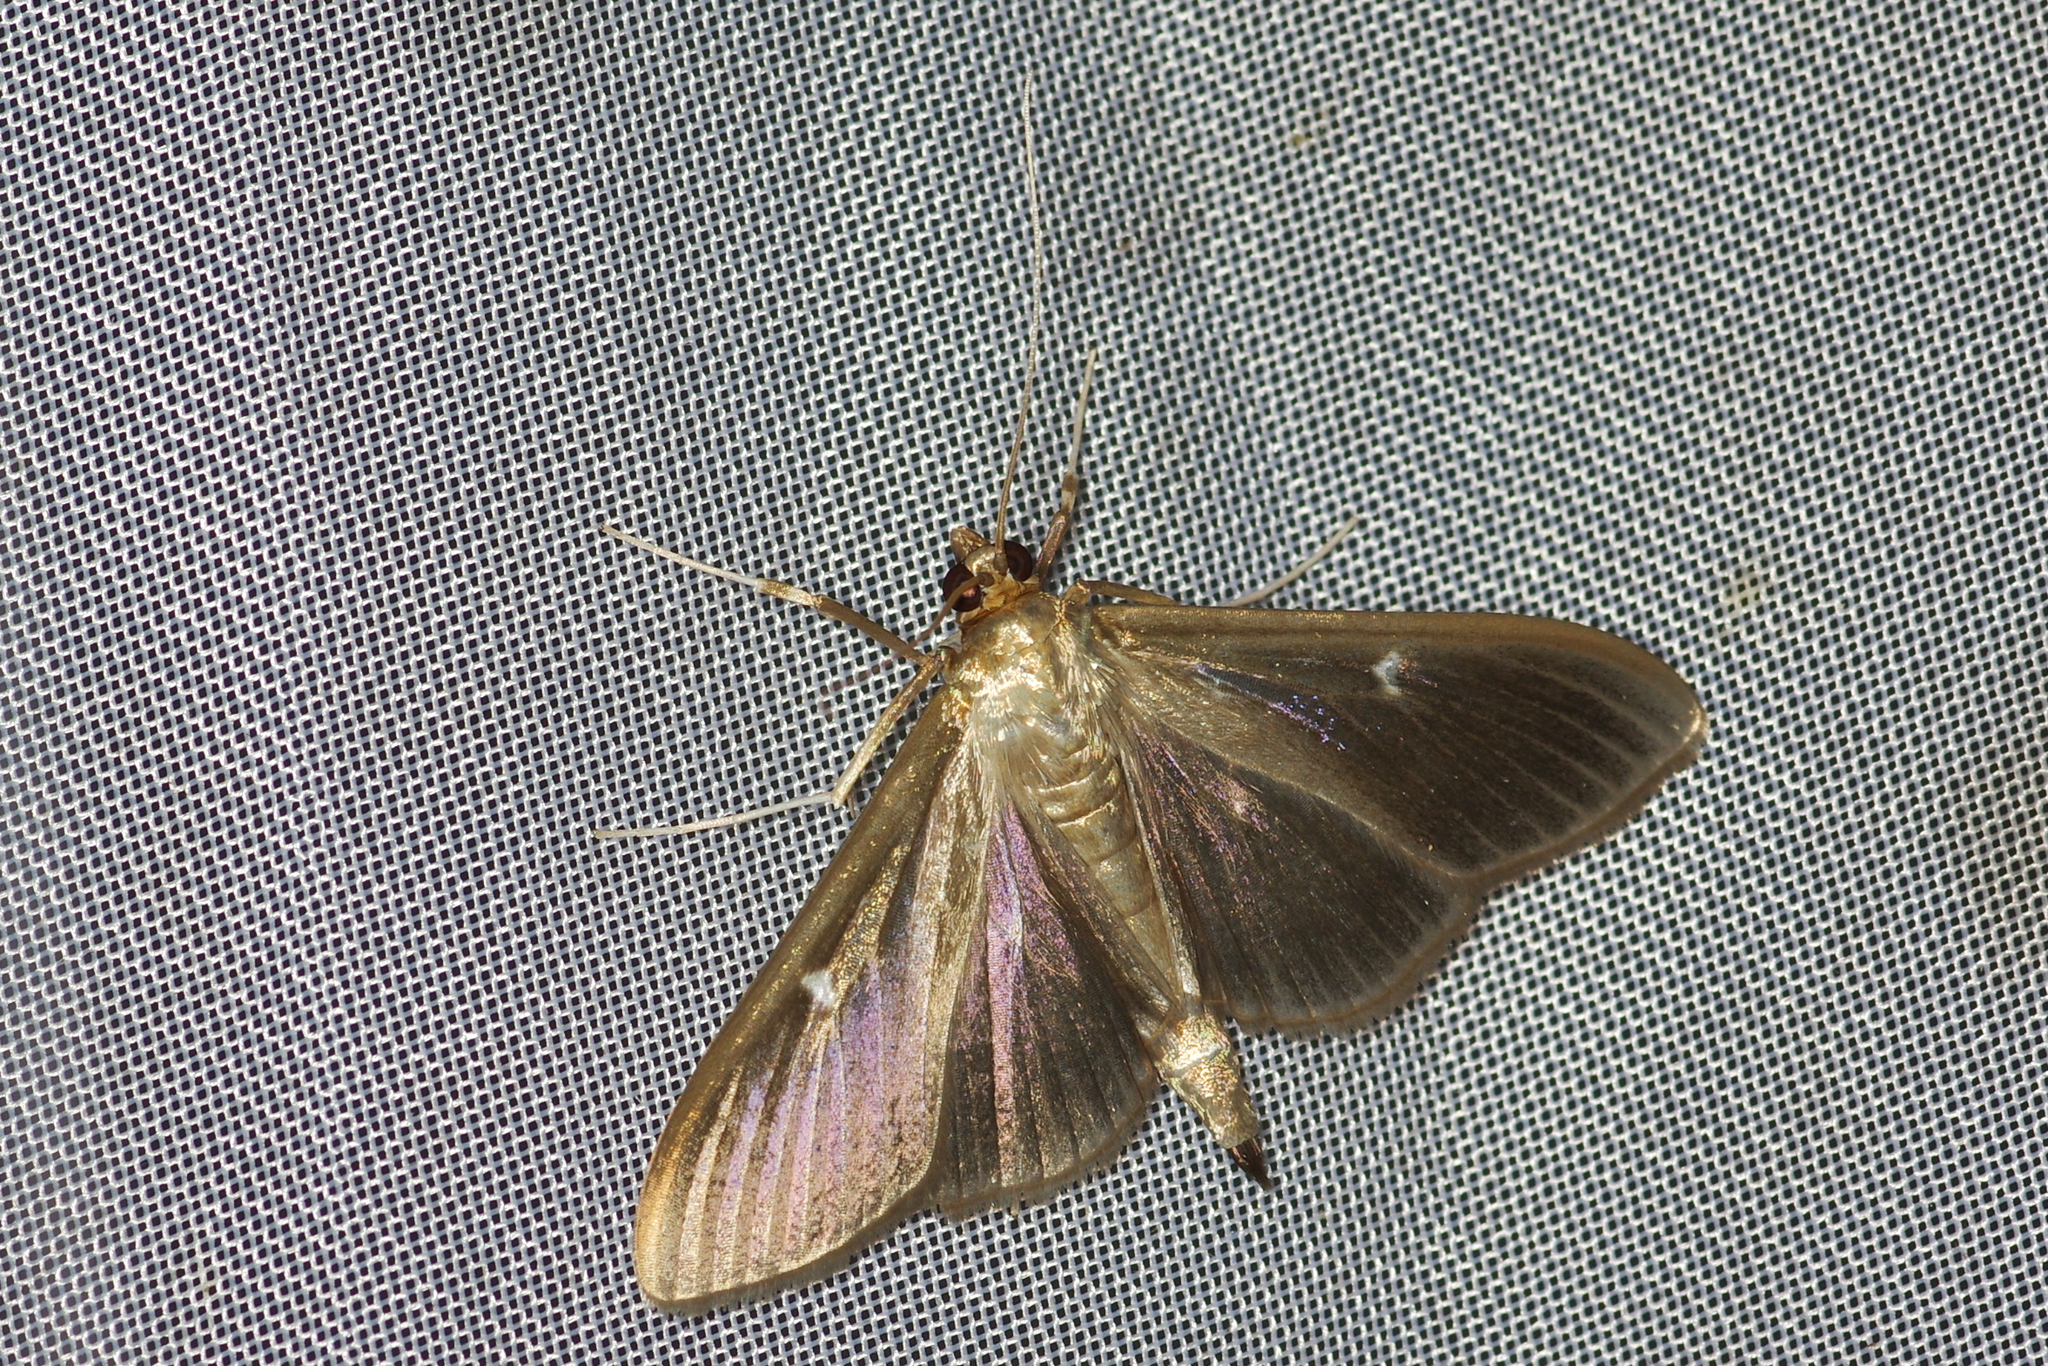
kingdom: Animalia
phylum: Arthropoda
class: Insecta
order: Lepidoptera
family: Crambidae
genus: Cydalima
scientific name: Cydalima perspectalis
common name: Box tree moth
